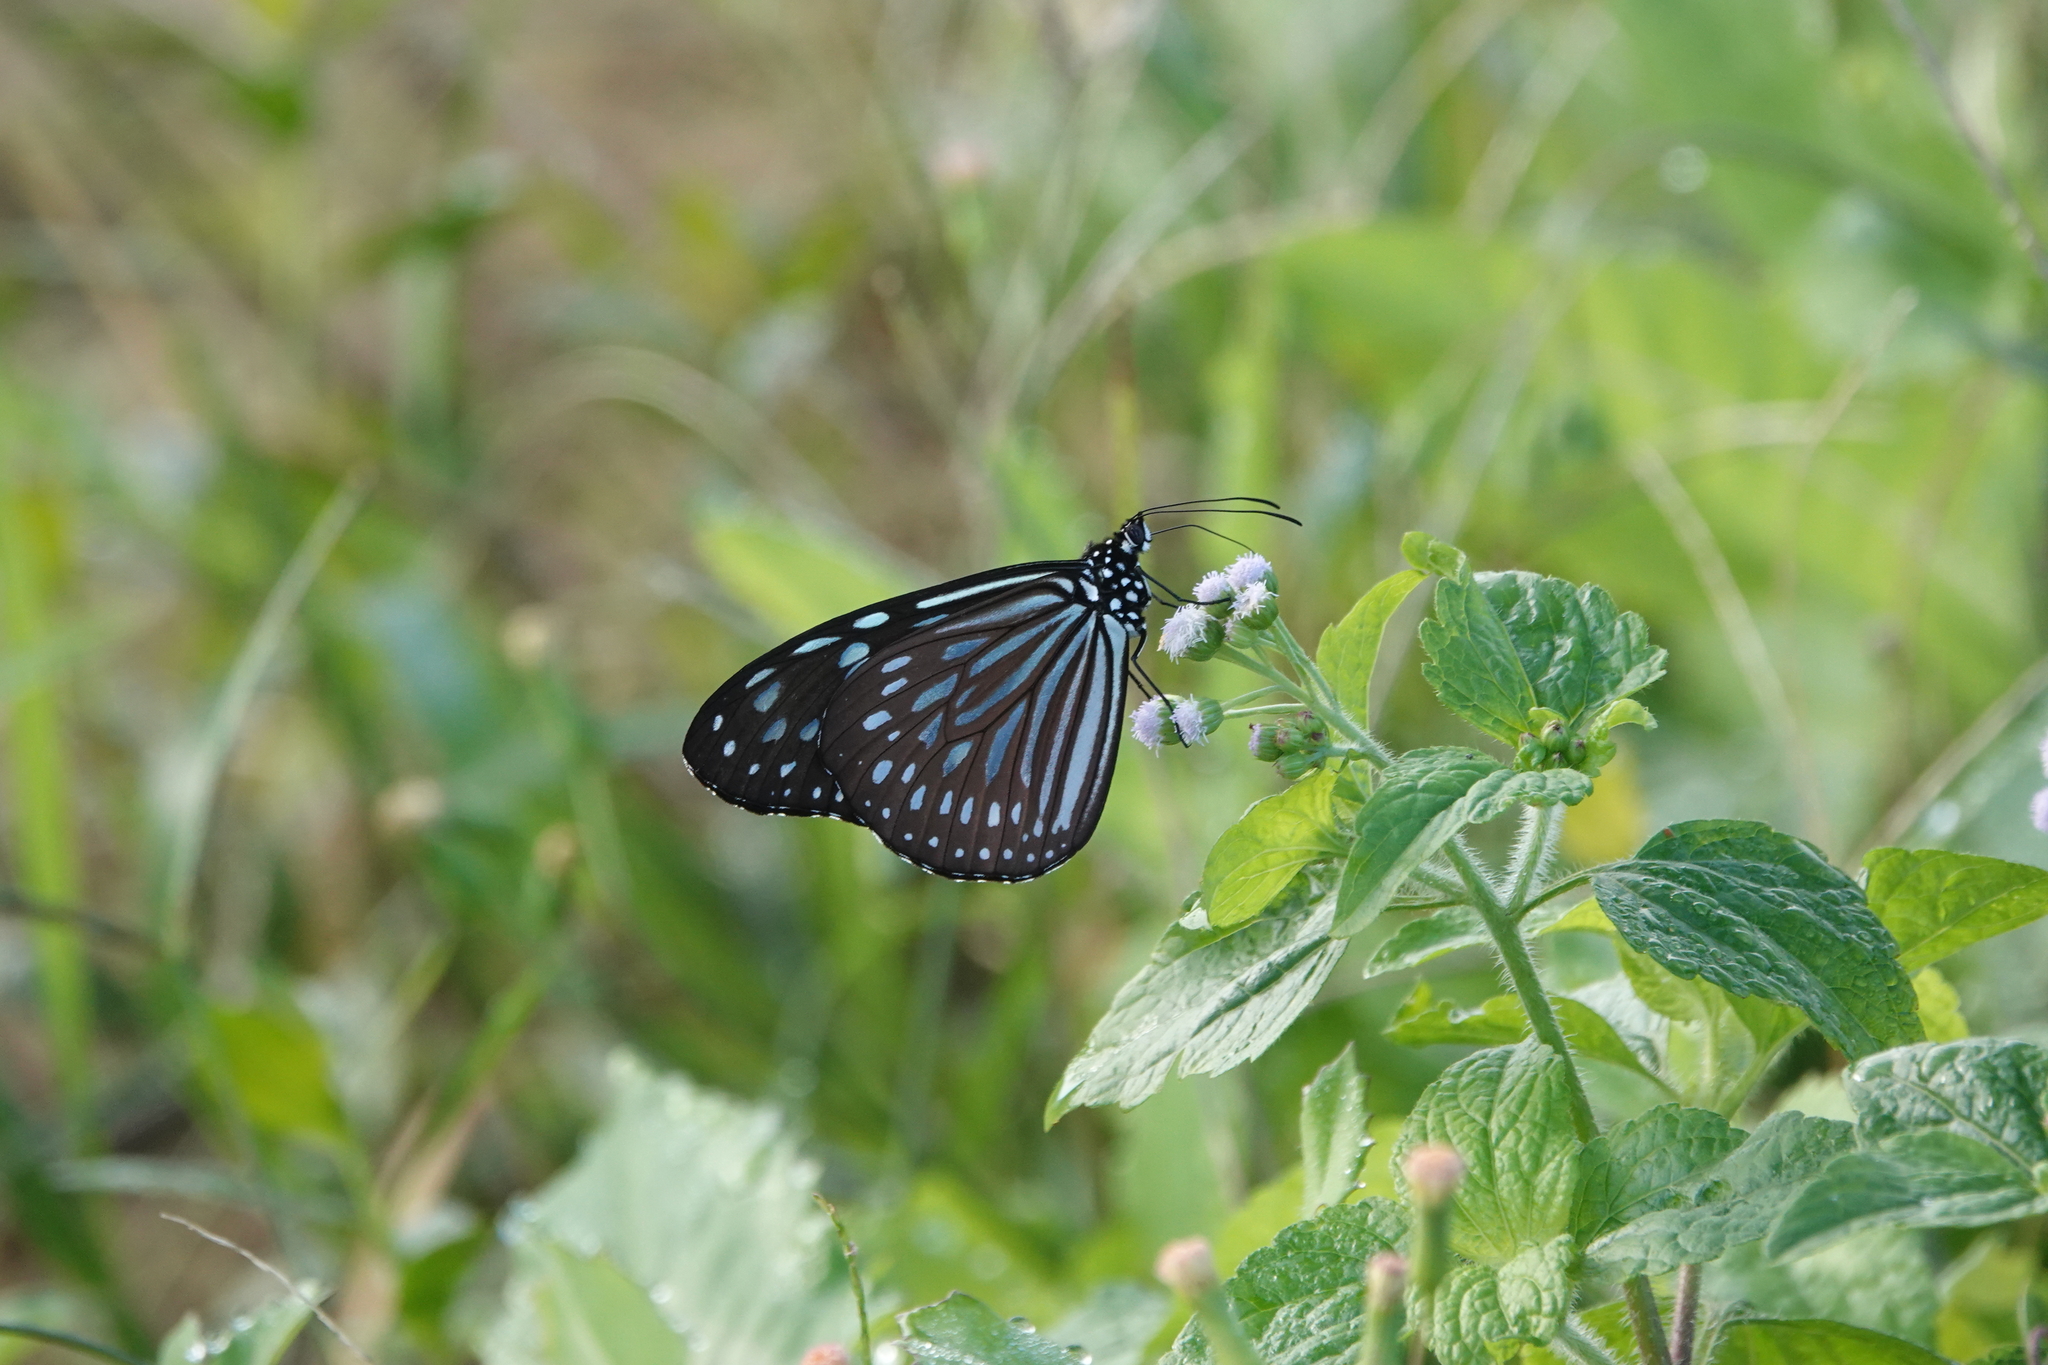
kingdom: Animalia
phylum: Arthropoda
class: Insecta
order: Lepidoptera
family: Nymphalidae
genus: Ideopsis
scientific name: Ideopsis similis
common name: Ceylon blue glassy tiger
